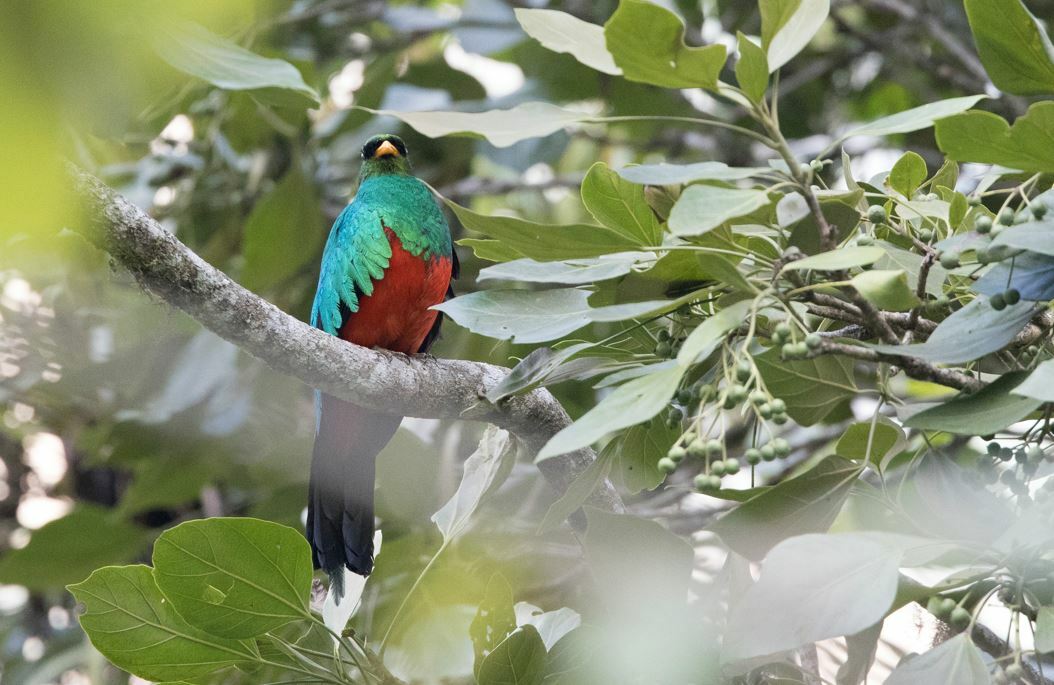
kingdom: Animalia
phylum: Chordata
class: Aves
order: Trogoniformes
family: Trogonidae
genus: Pharomachrus
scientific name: Pharomachrus auriceps
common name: Golden-headed quetzal
